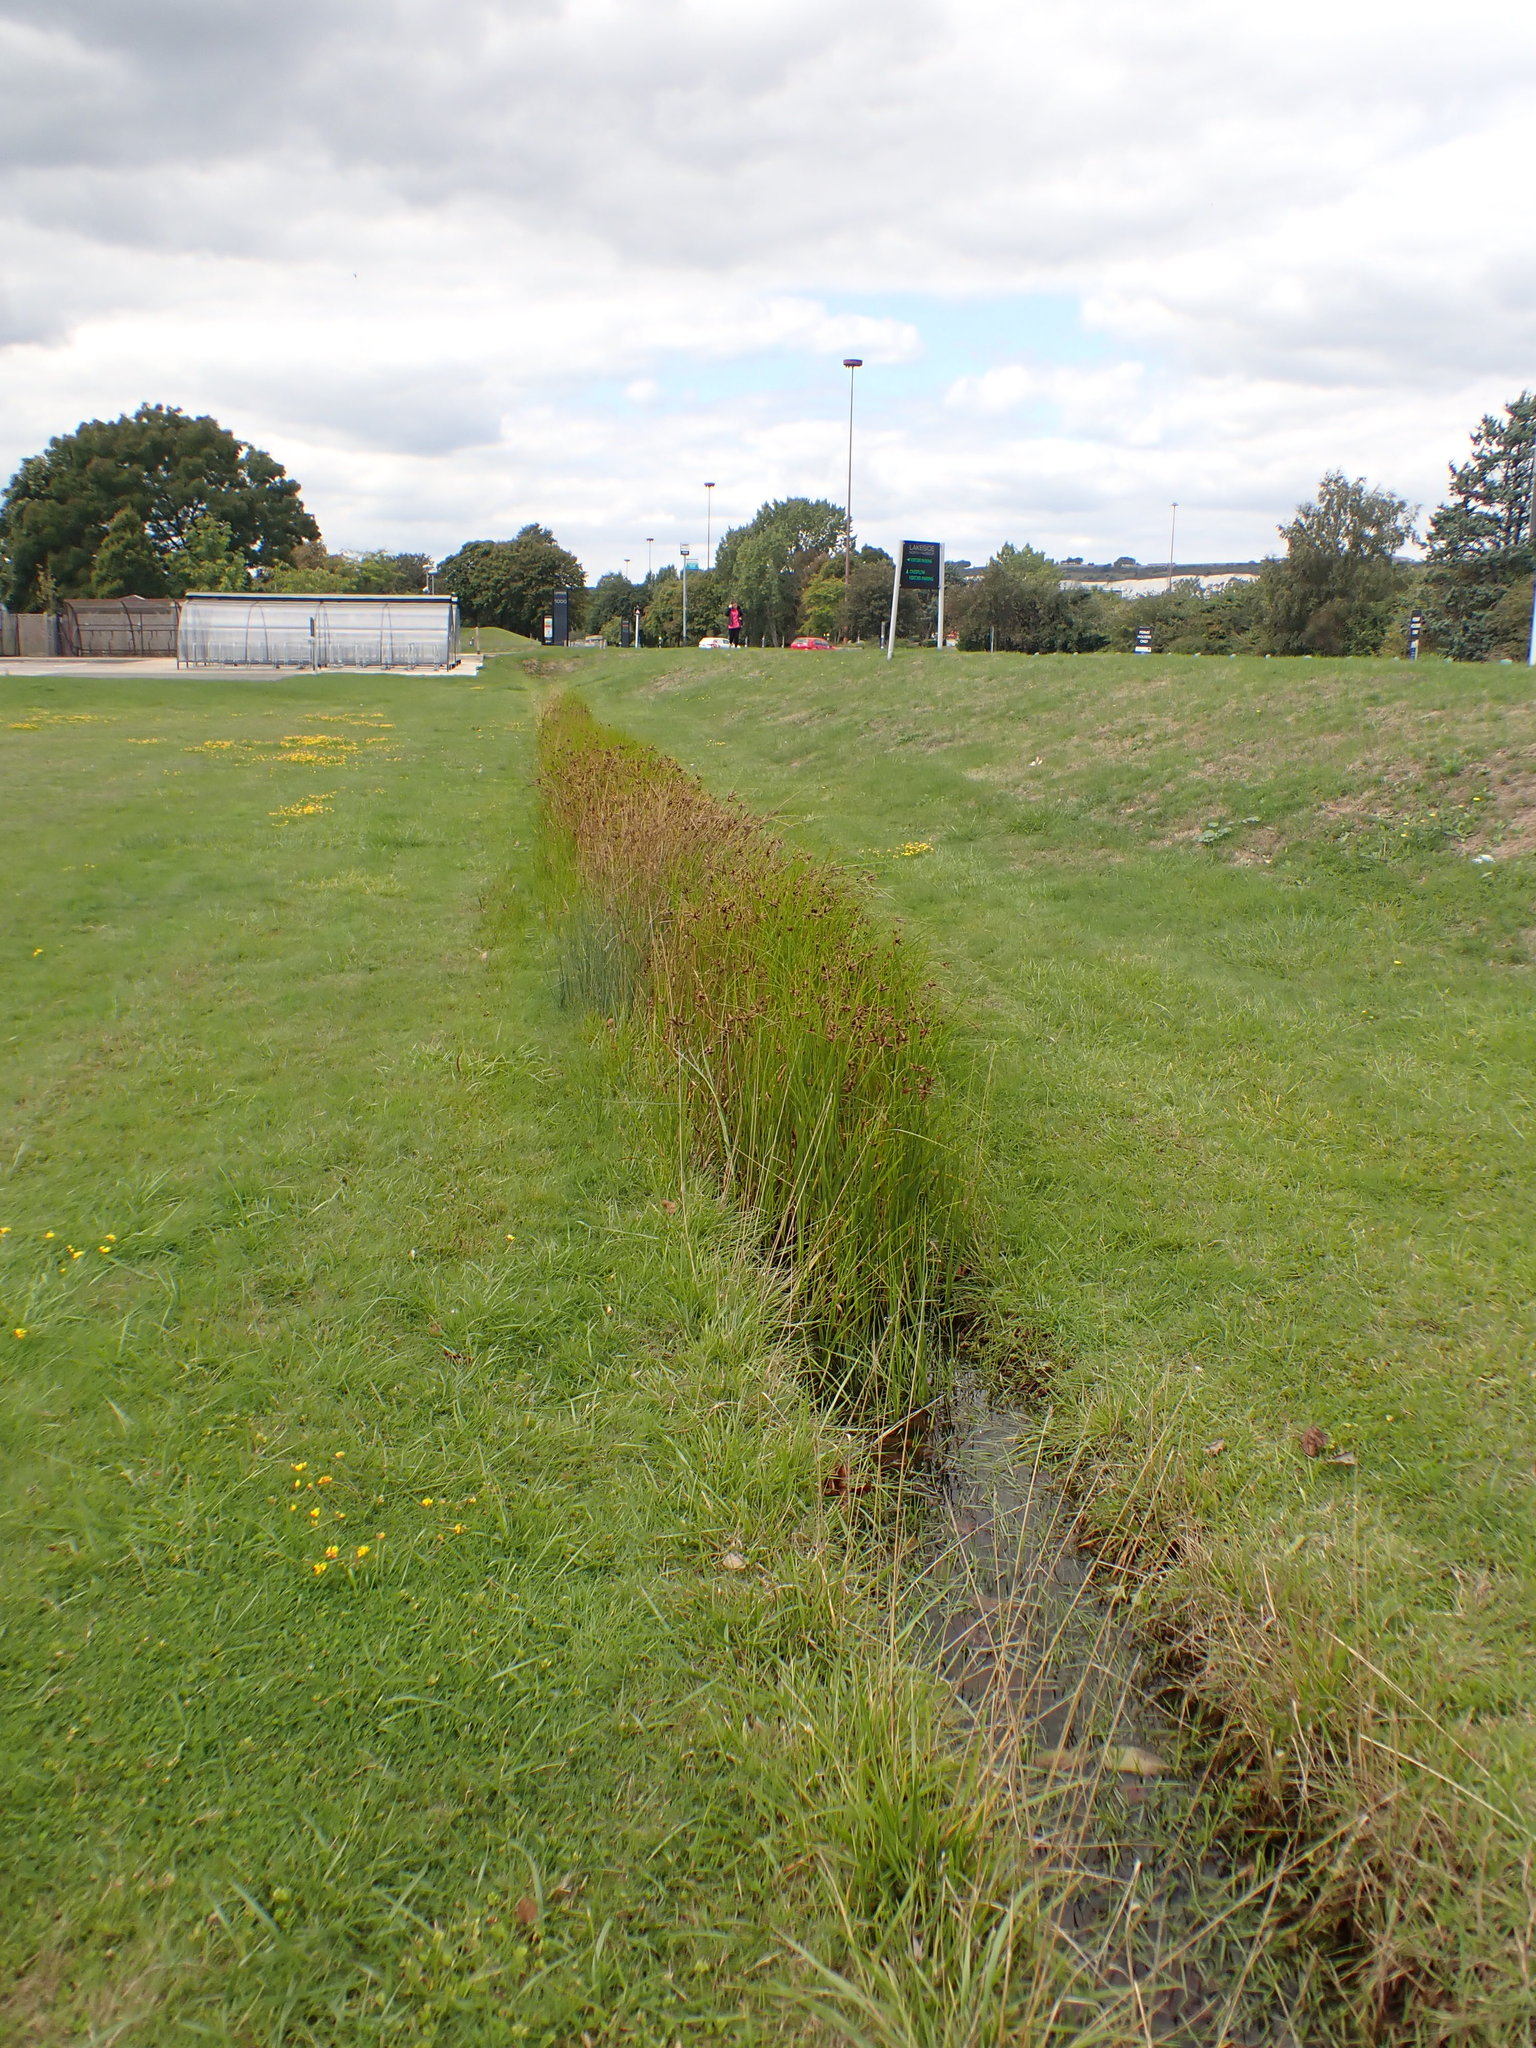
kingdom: Plantae
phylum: Tracheophyta
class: Liliopsida
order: Poales
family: Cyperaceae
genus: Bolboschoenus
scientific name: Bolboschoenus maritimus
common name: Sea club-rush
